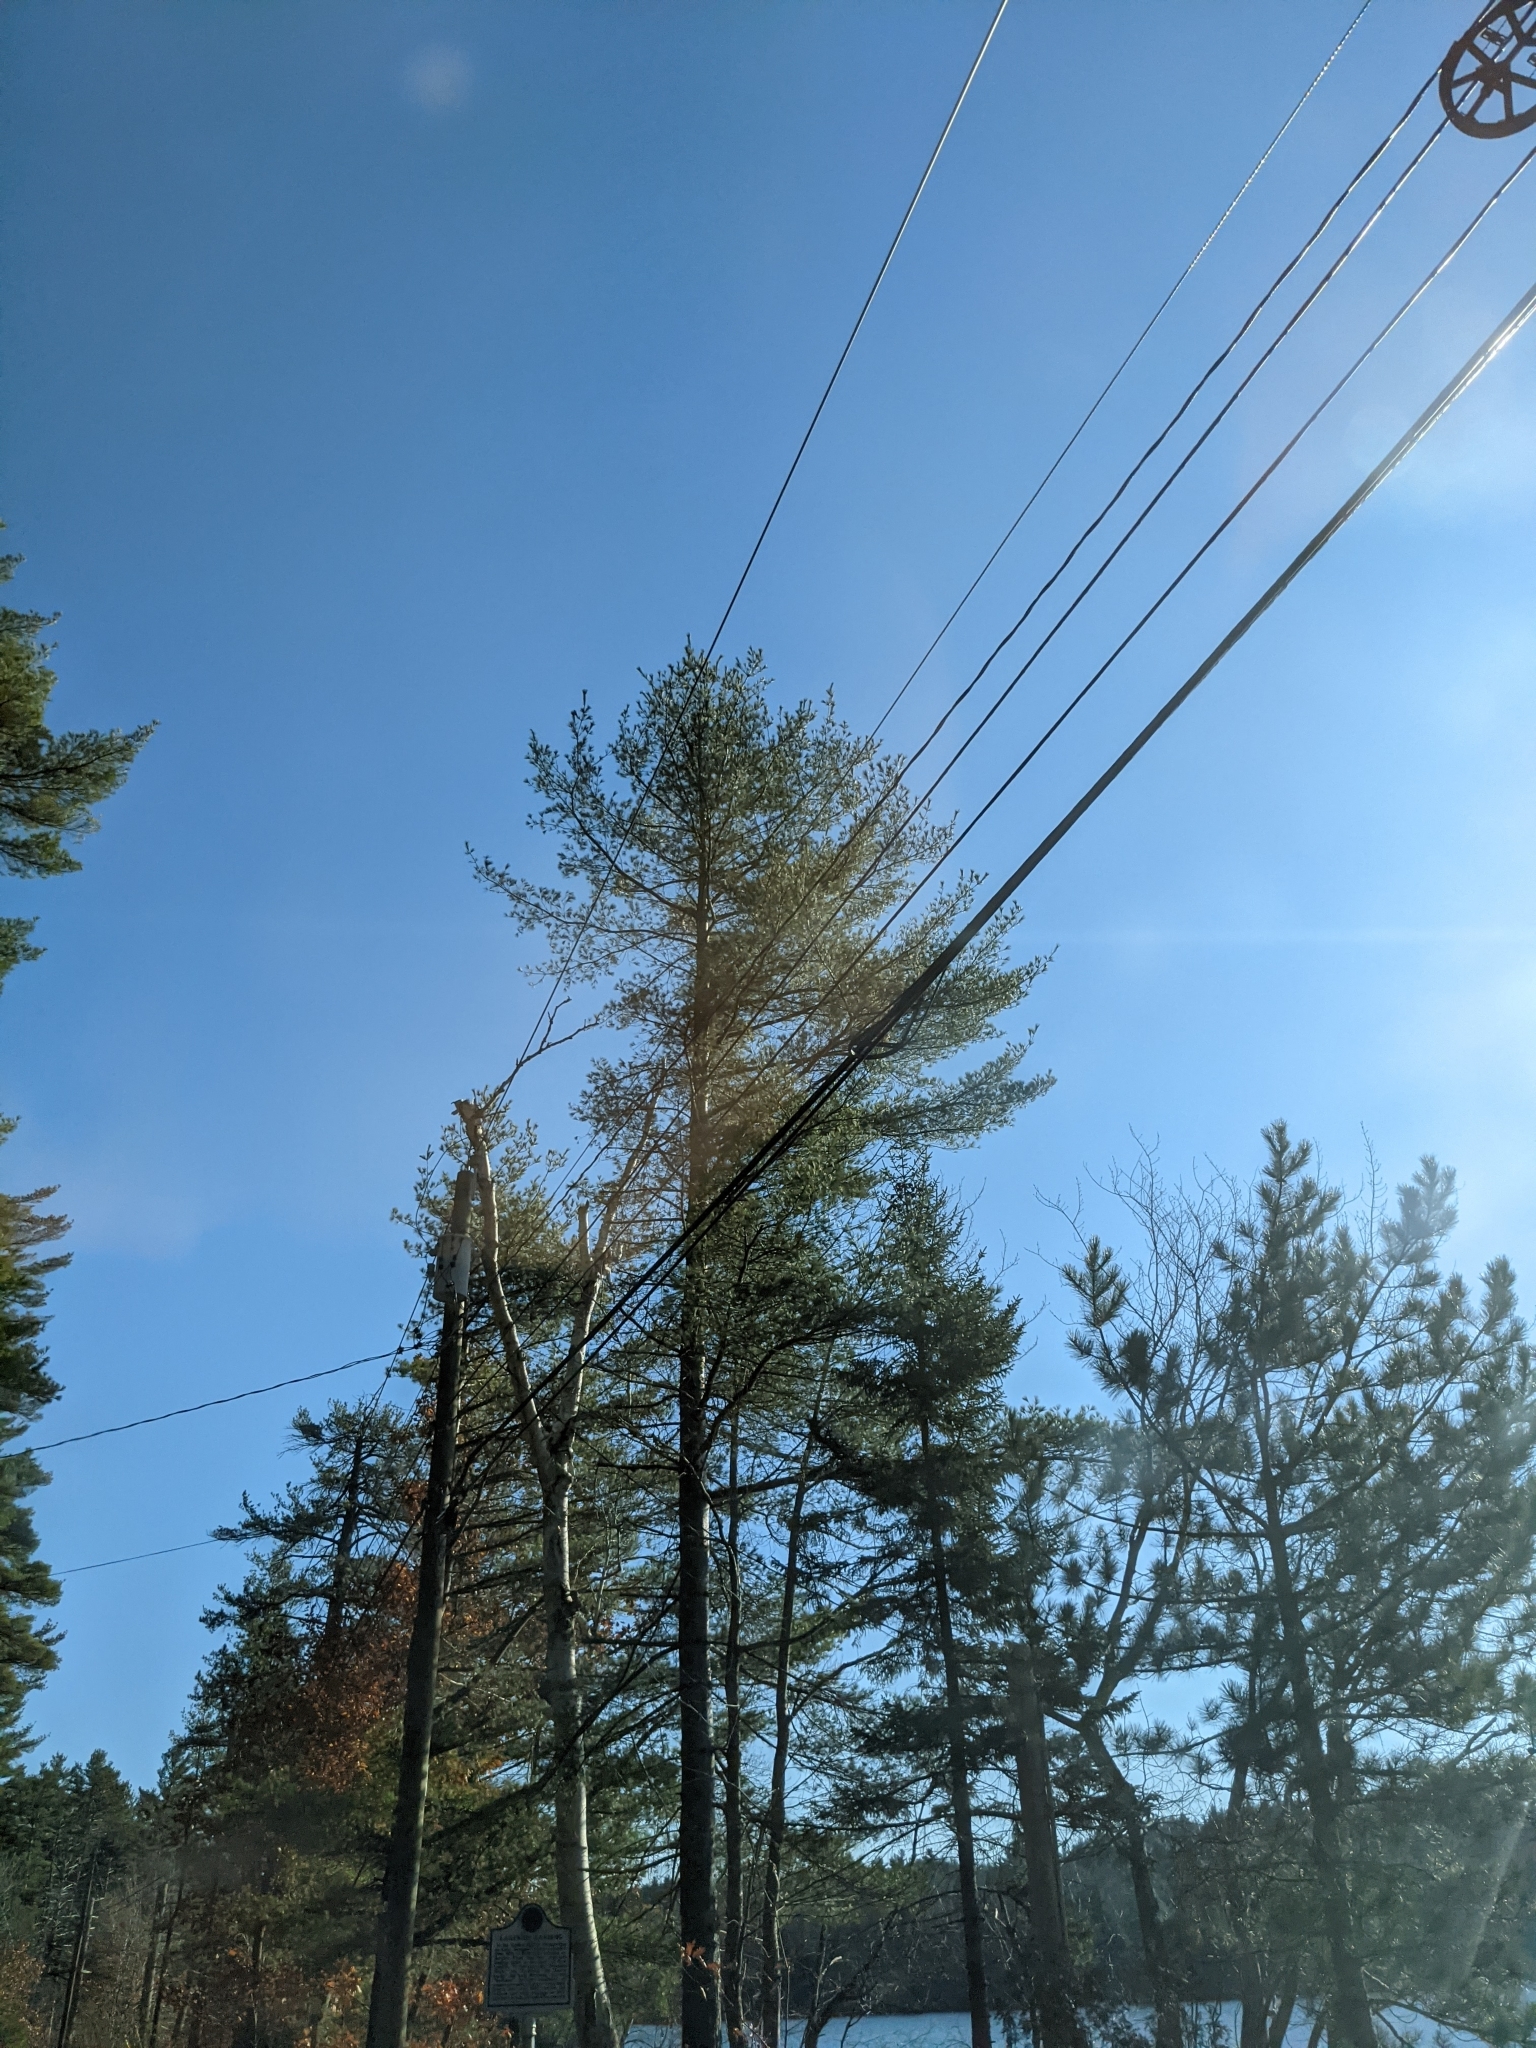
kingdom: Plantae
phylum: Tracheophyta
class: Pinopsida
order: Pinales
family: Pinaceae
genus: Pinus
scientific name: Pinus strobus
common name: Weymouth pine
